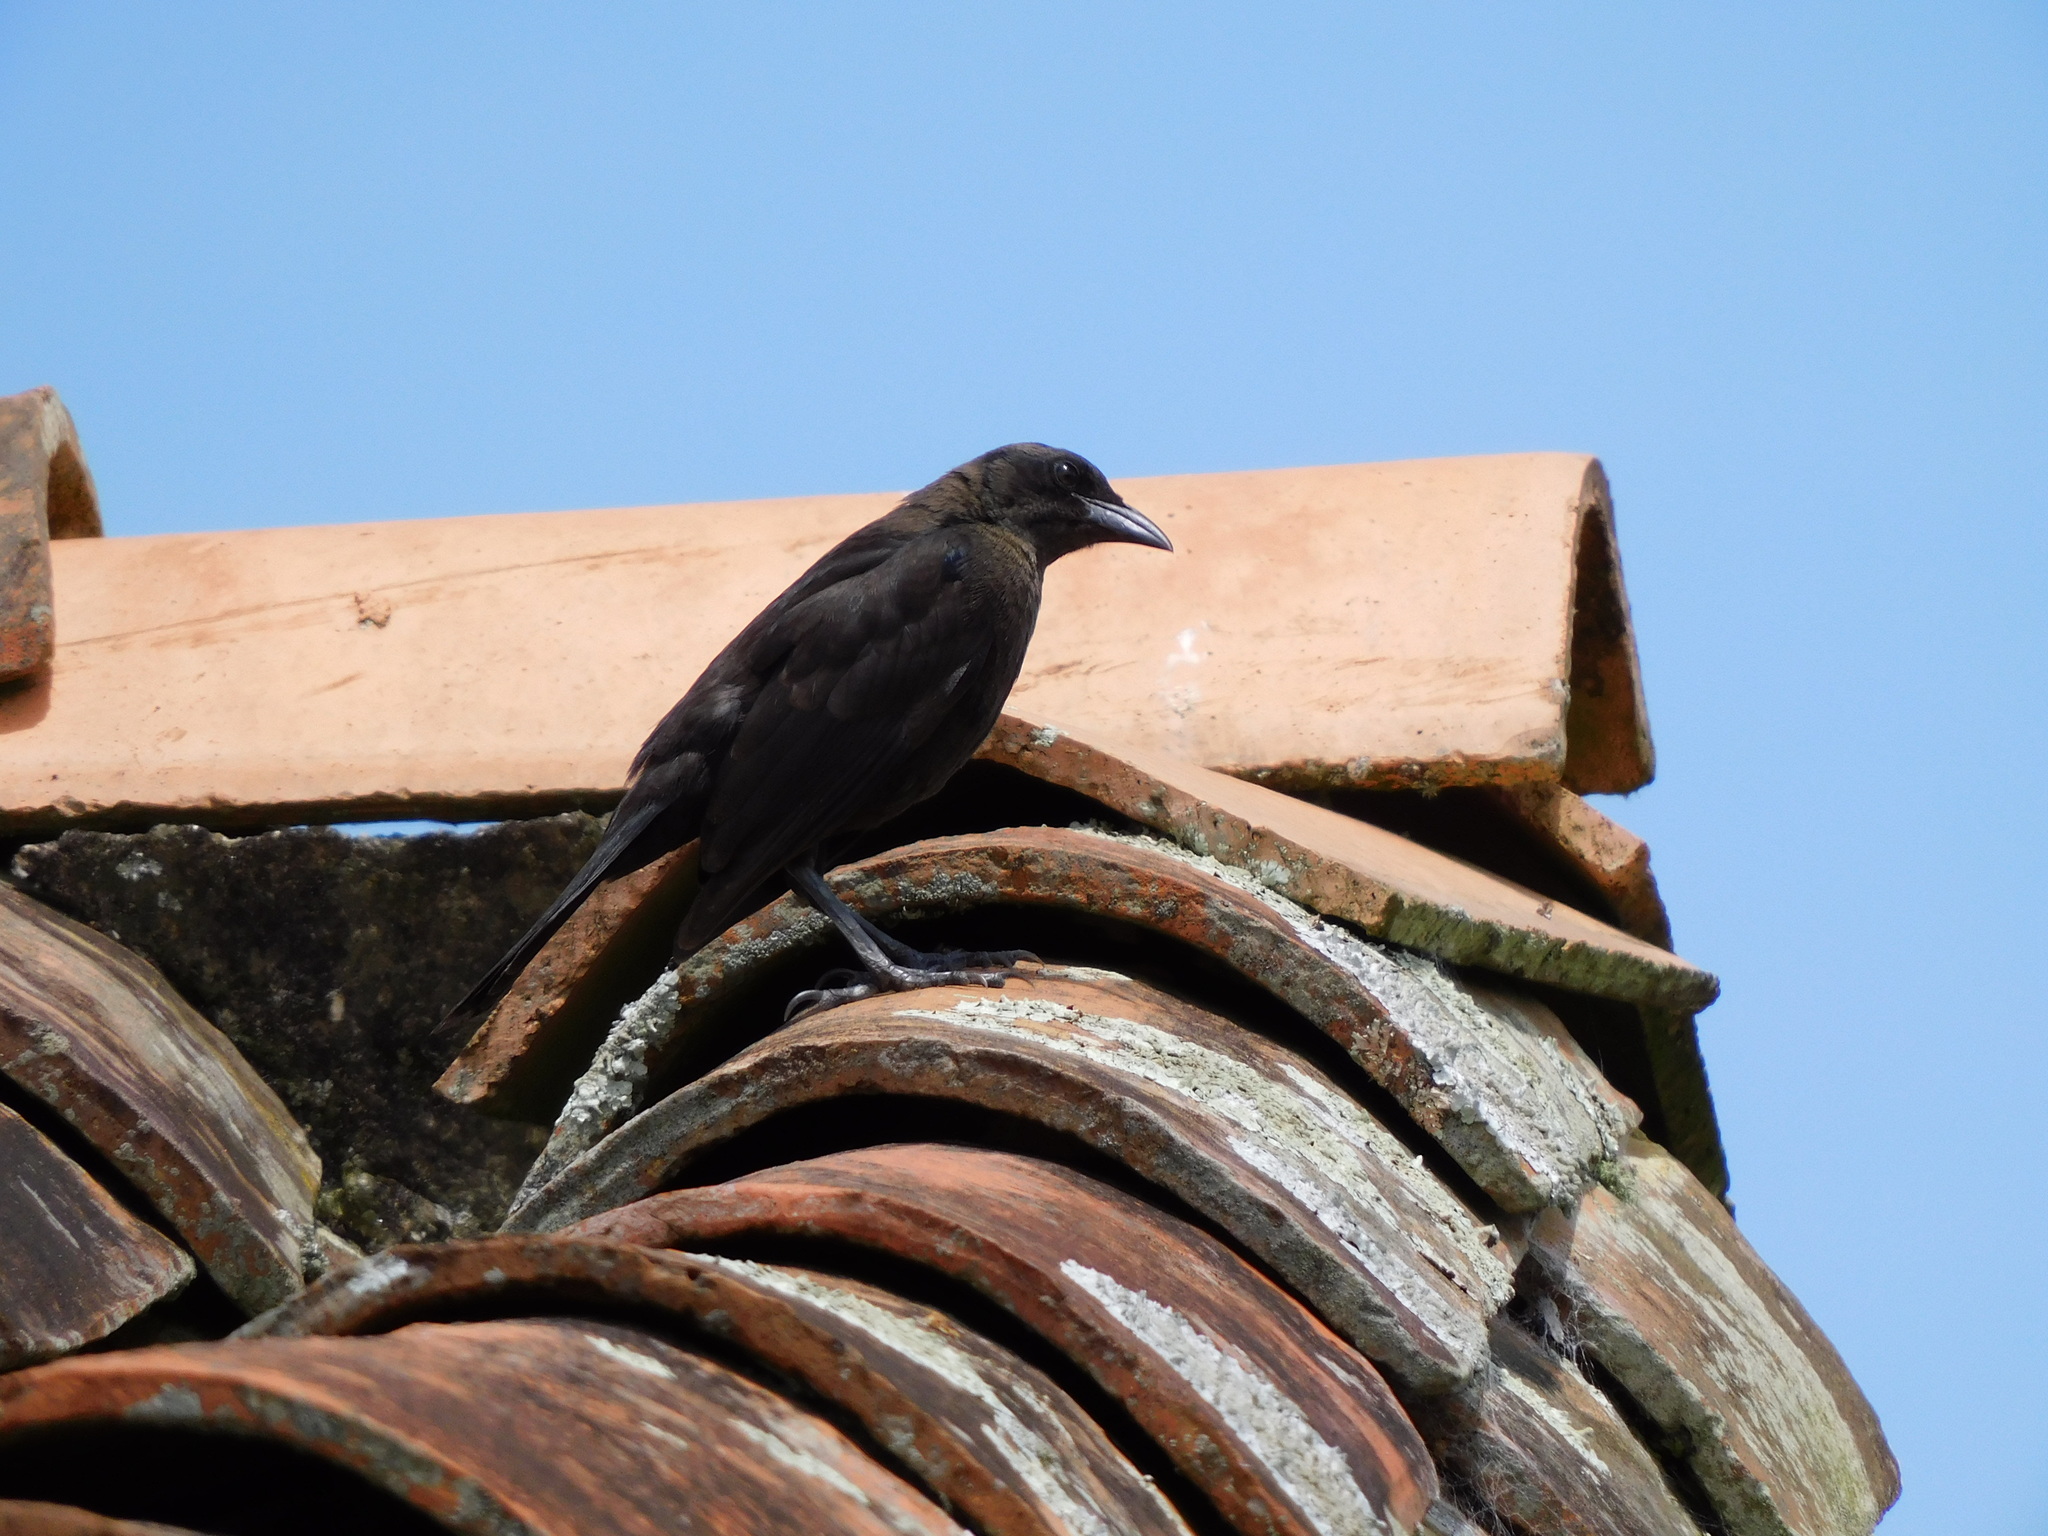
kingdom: Animalia
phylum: Chordata
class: Aves
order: Passeriformes
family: Icteridae
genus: Molothrus
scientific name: Molothrus bonariensis
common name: Shiny cowbird
